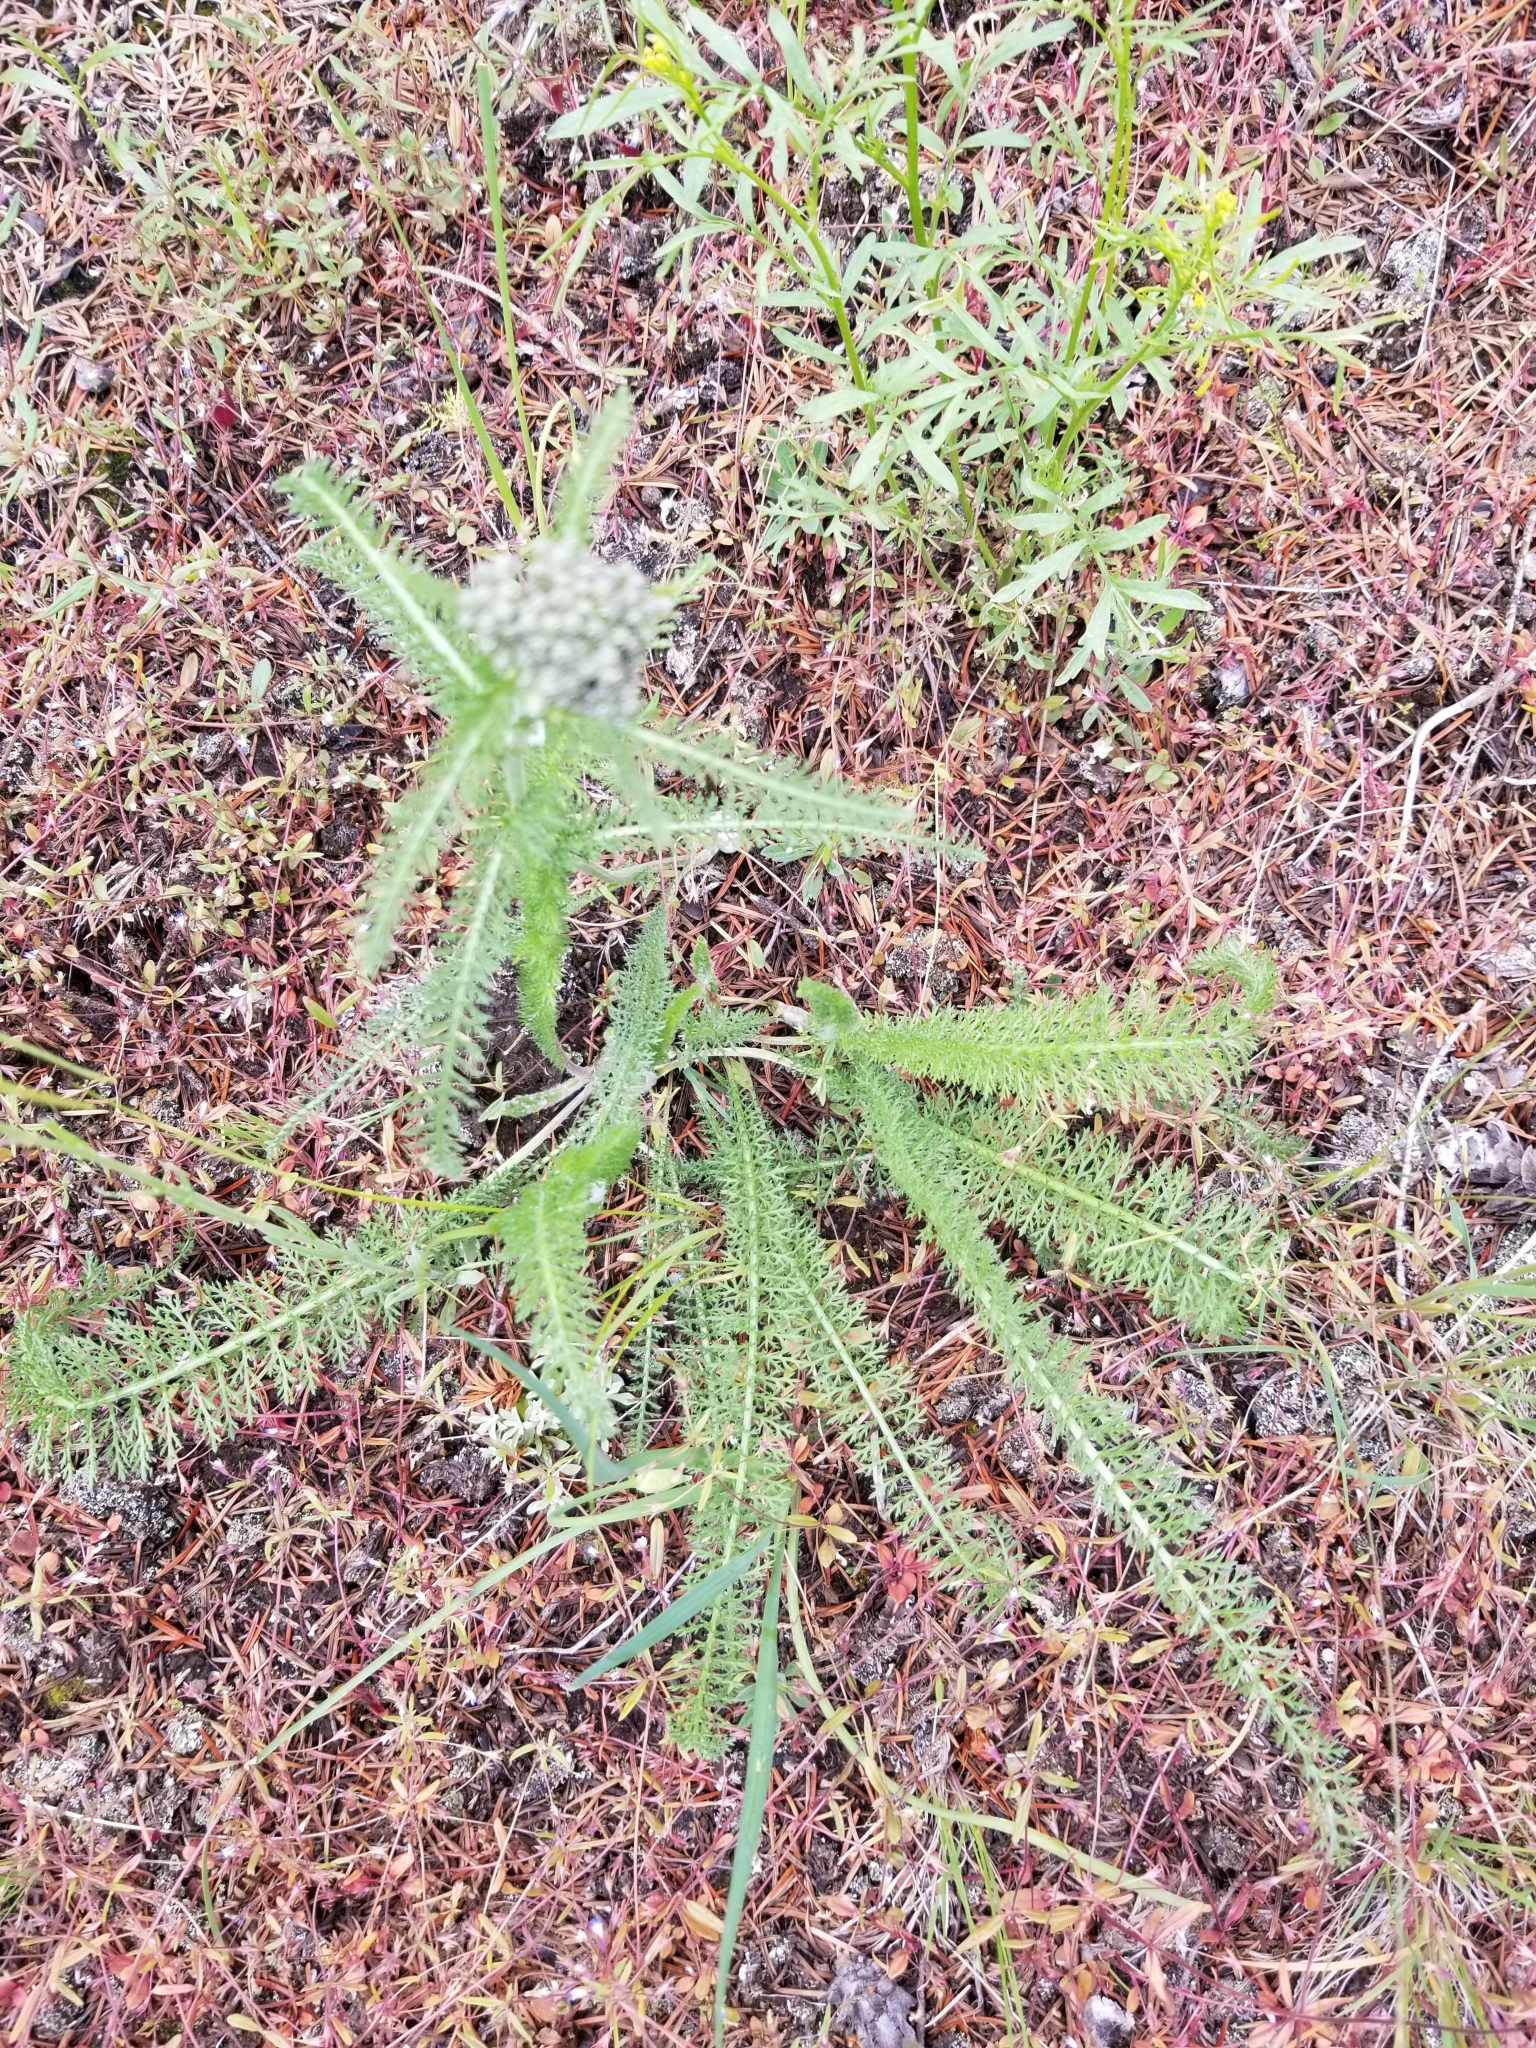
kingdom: Plantae
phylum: Tracheophyta
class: Magnoliopsida
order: Asterales
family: Asteraceae
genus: Achillea
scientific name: Achillea millefolium
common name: Yarrow
